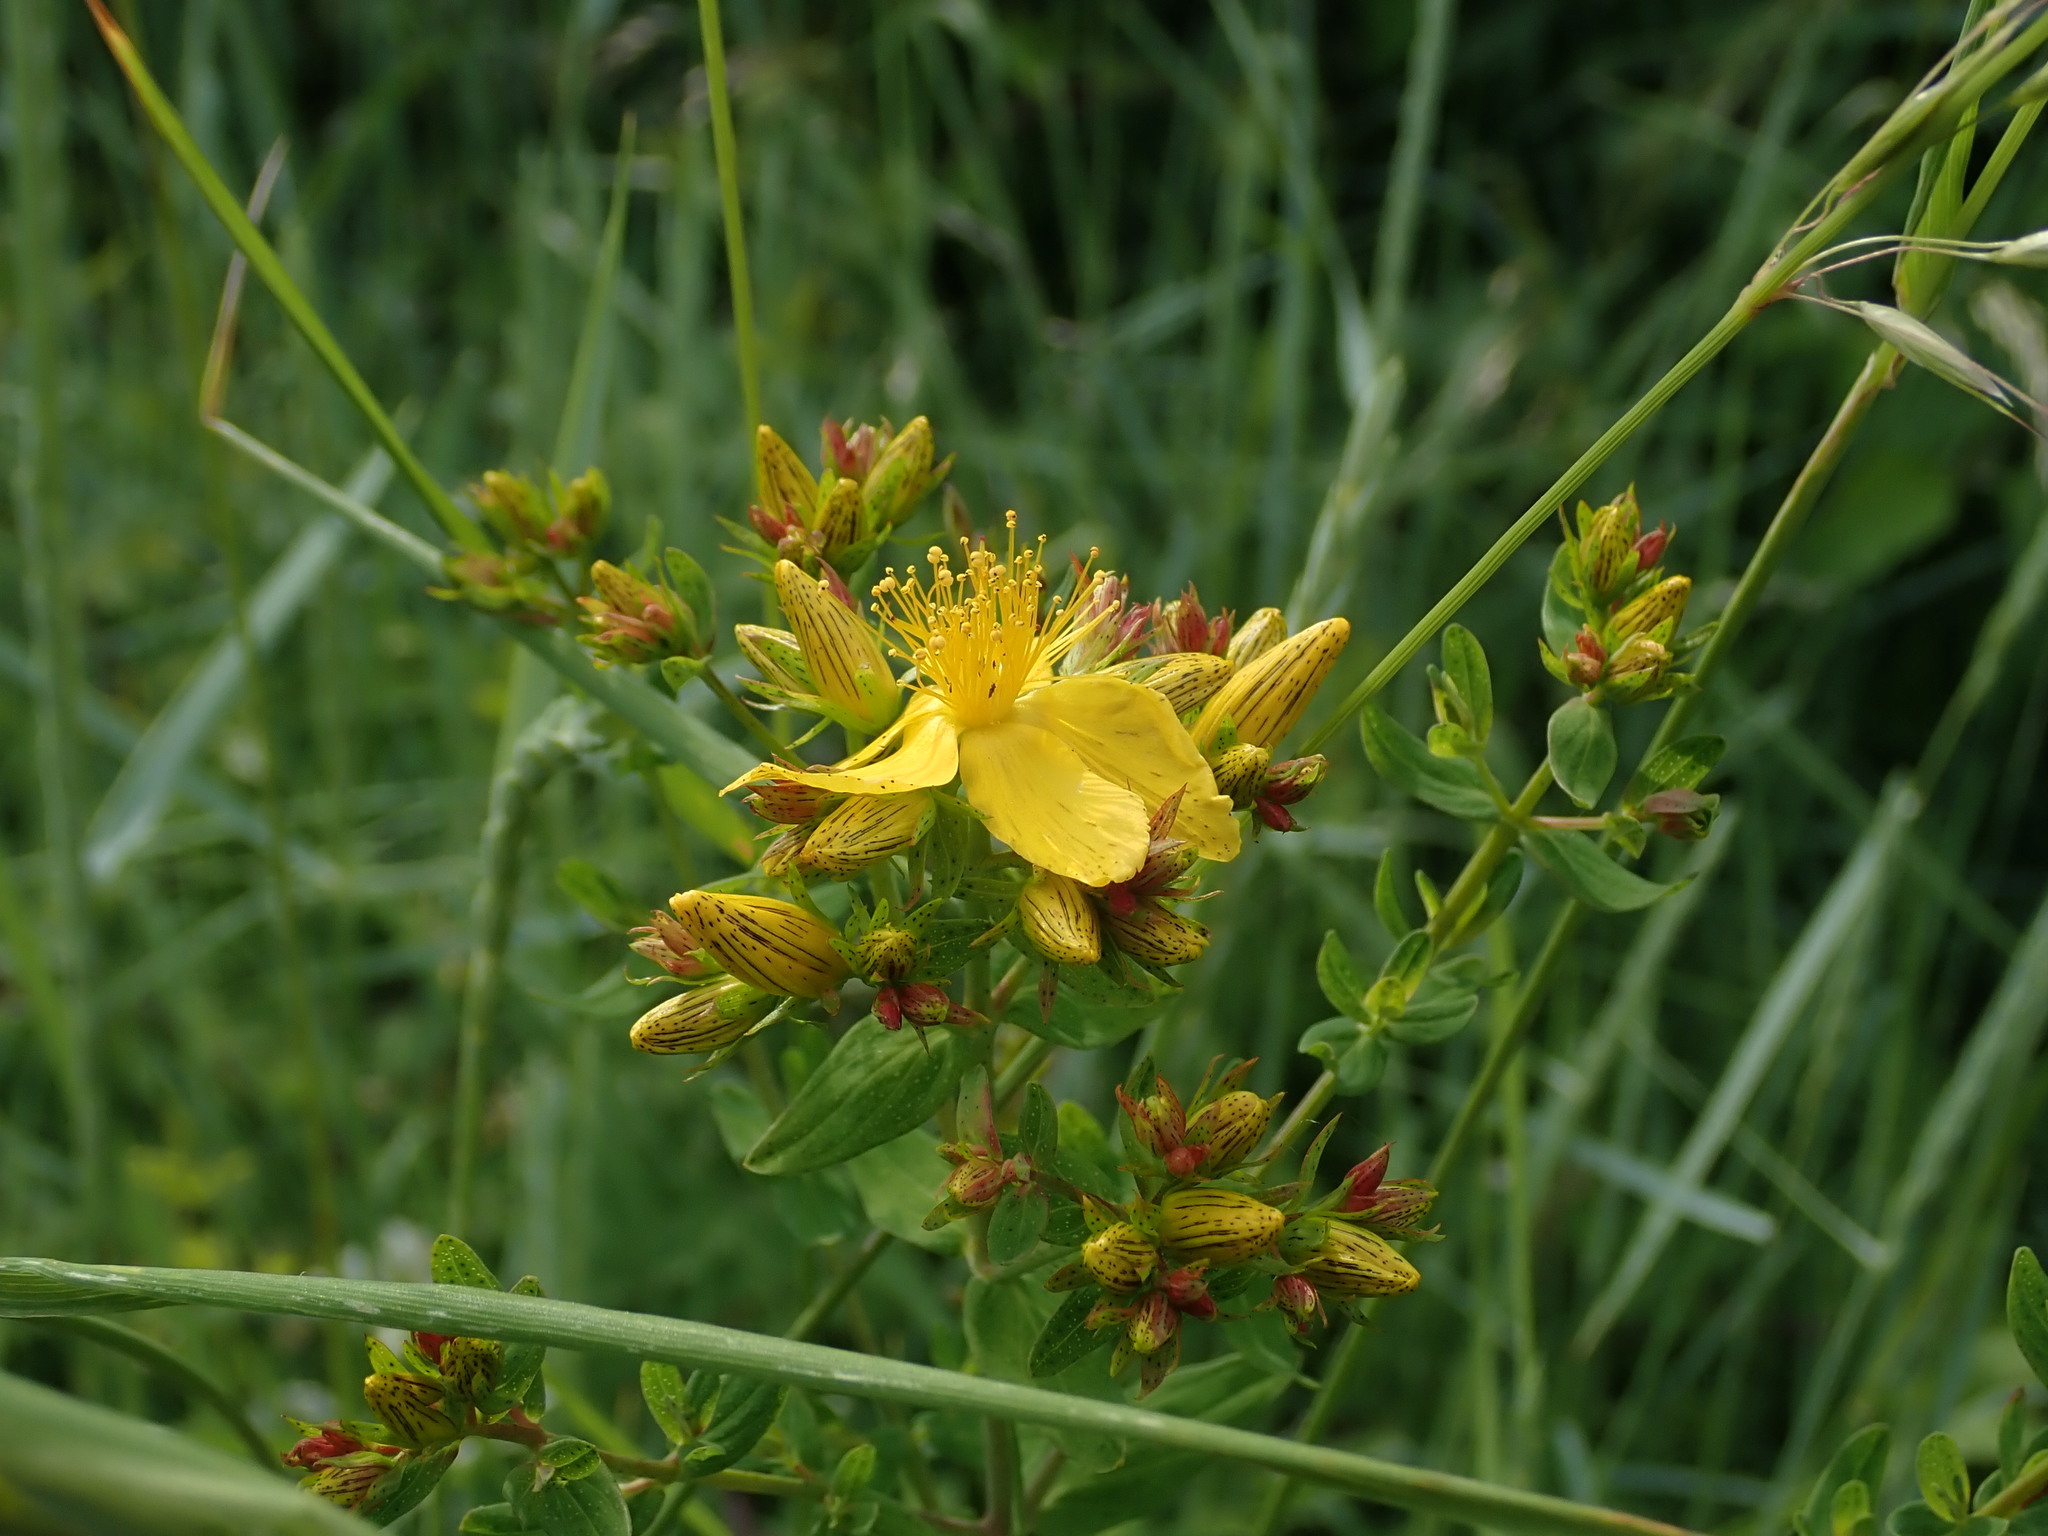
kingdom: Plantae
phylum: Tracheophyta
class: Magnoliopsida
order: Malpighiales
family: Hypericaceae
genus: Hypericum
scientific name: Hypericum perforatum
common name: Common st. johnswort
